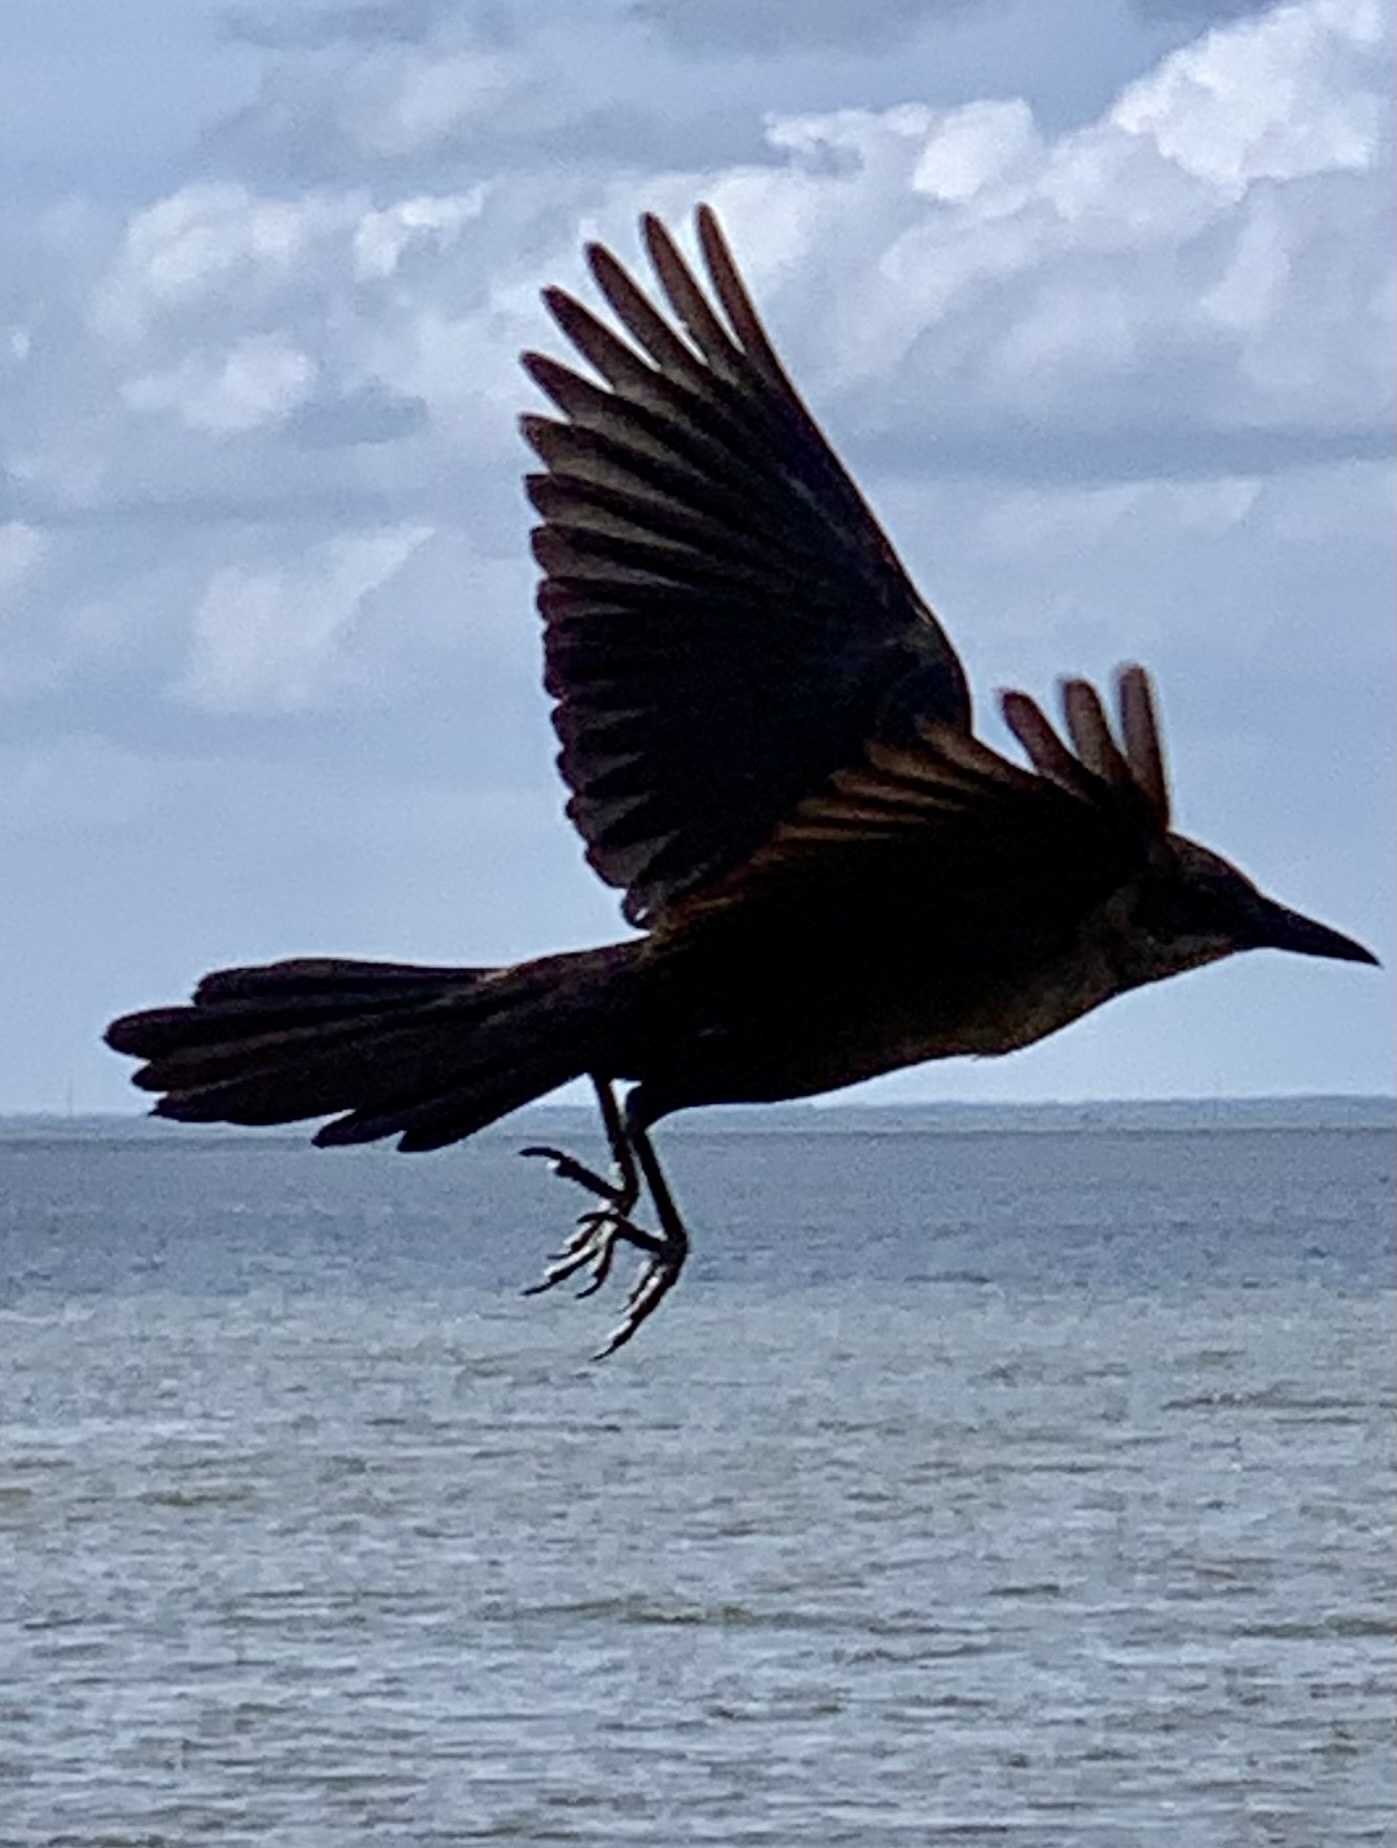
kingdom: Animalia
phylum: Chordata
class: Aves
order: Passeriformes
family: Icteridae
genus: Quiscalus
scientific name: Quiscalus major
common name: Boat-tailed grackle
